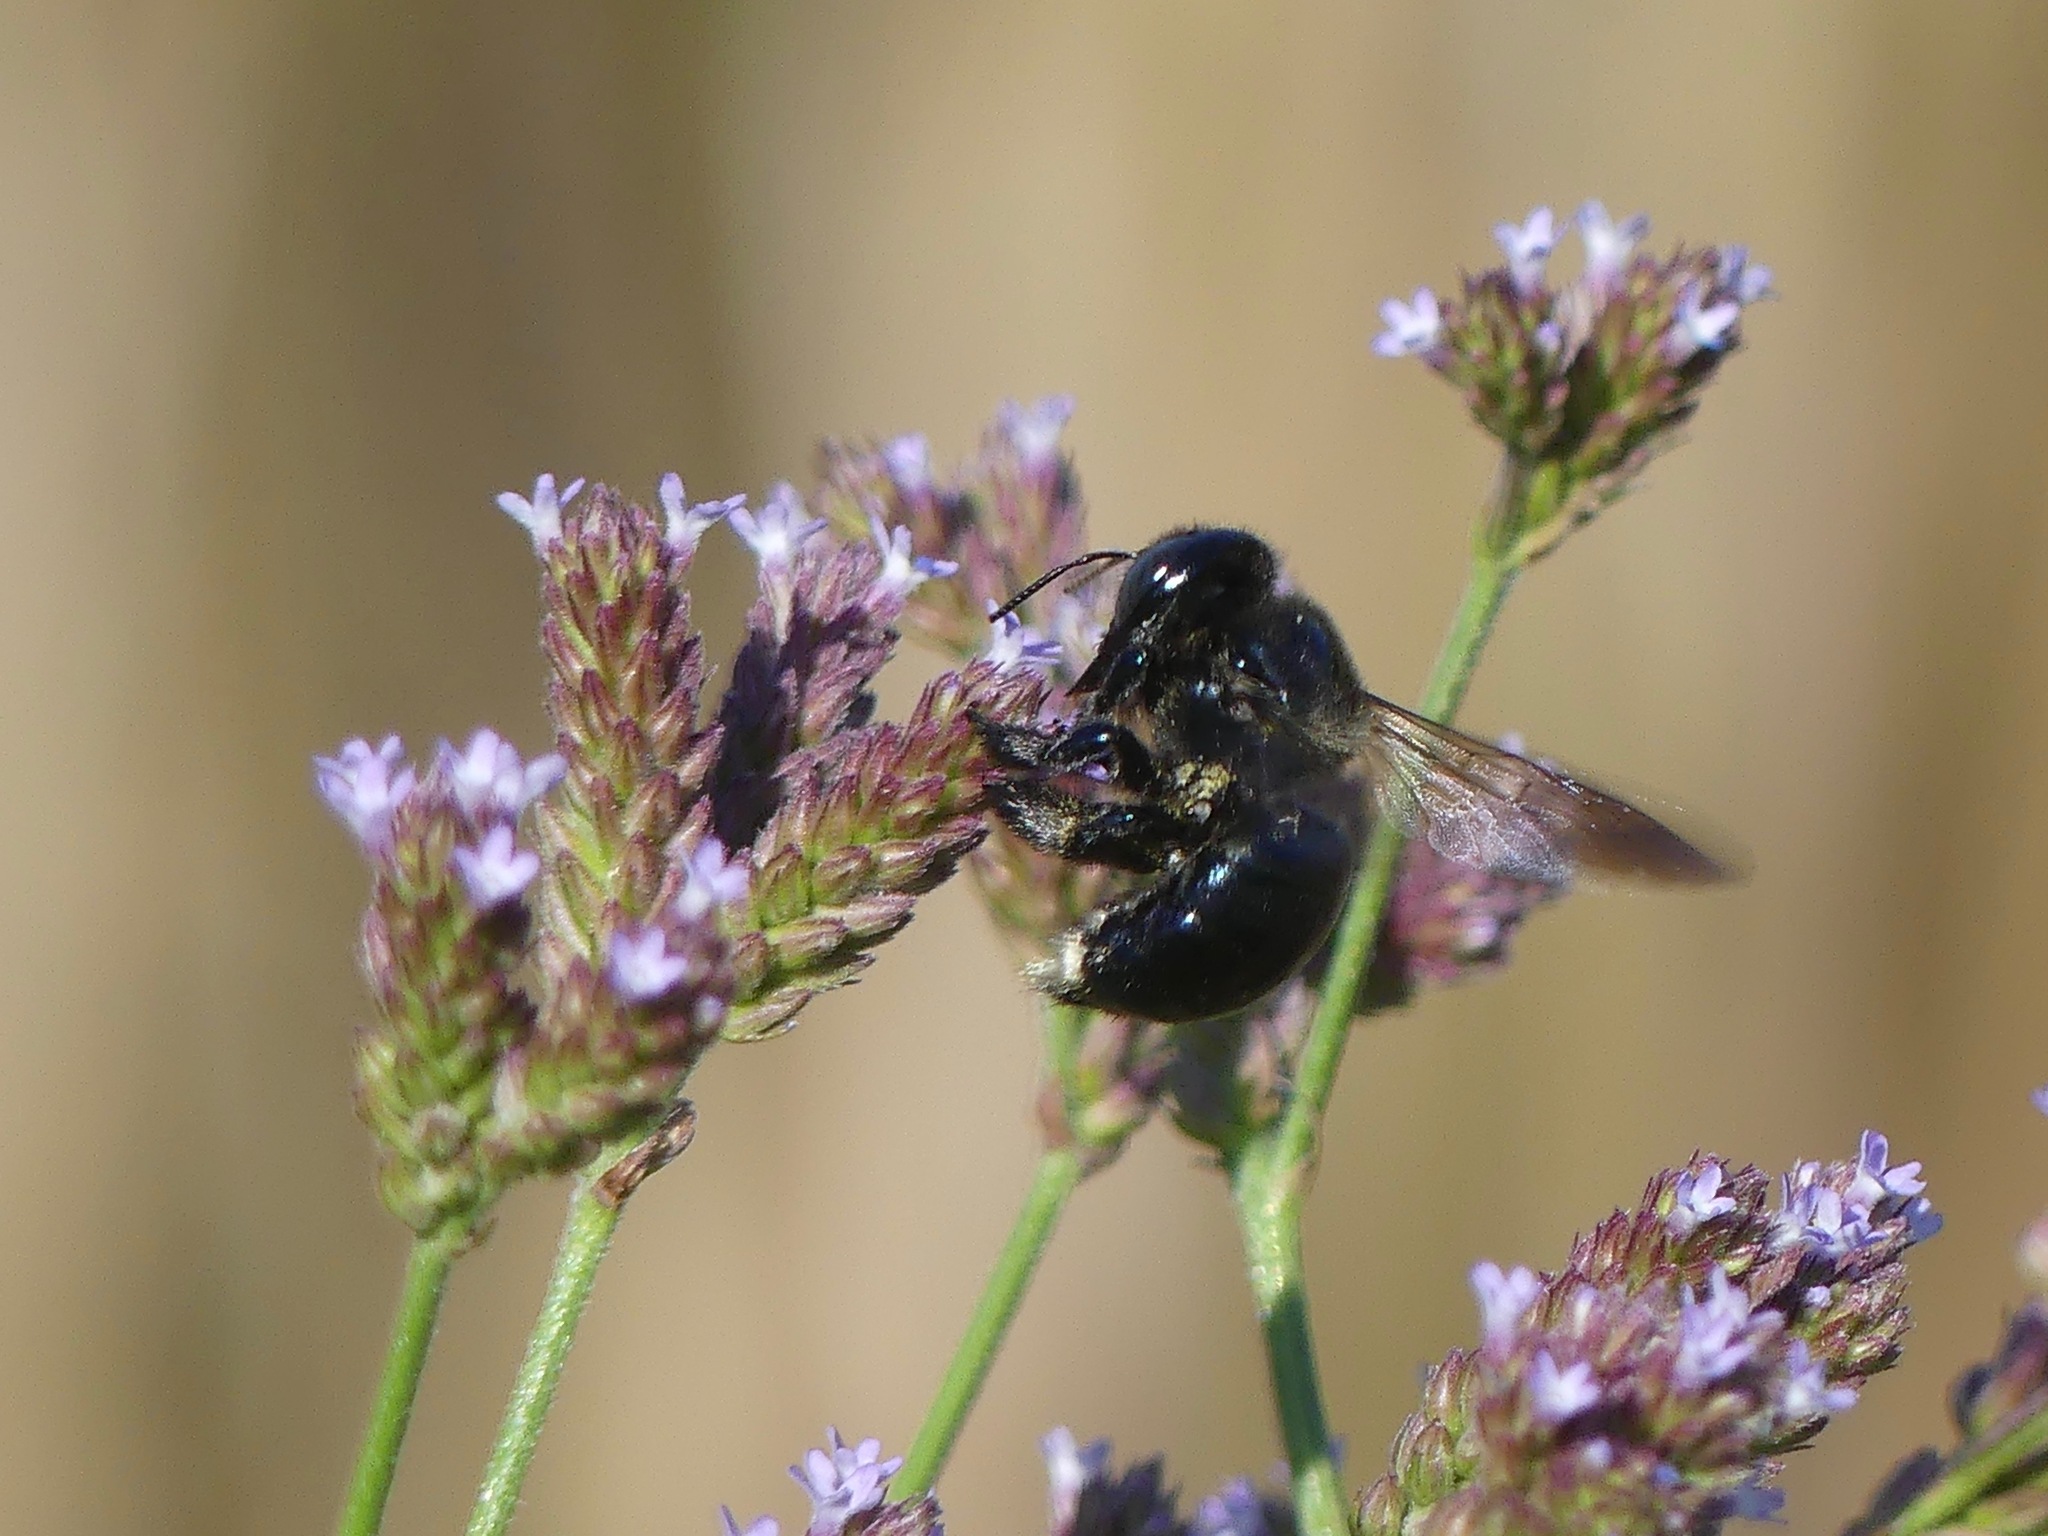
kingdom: Animalia
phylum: Arthropoda
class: Insecta
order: Hymenoptera
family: Apidae
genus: Xylocopa
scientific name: Xylocopa micans
